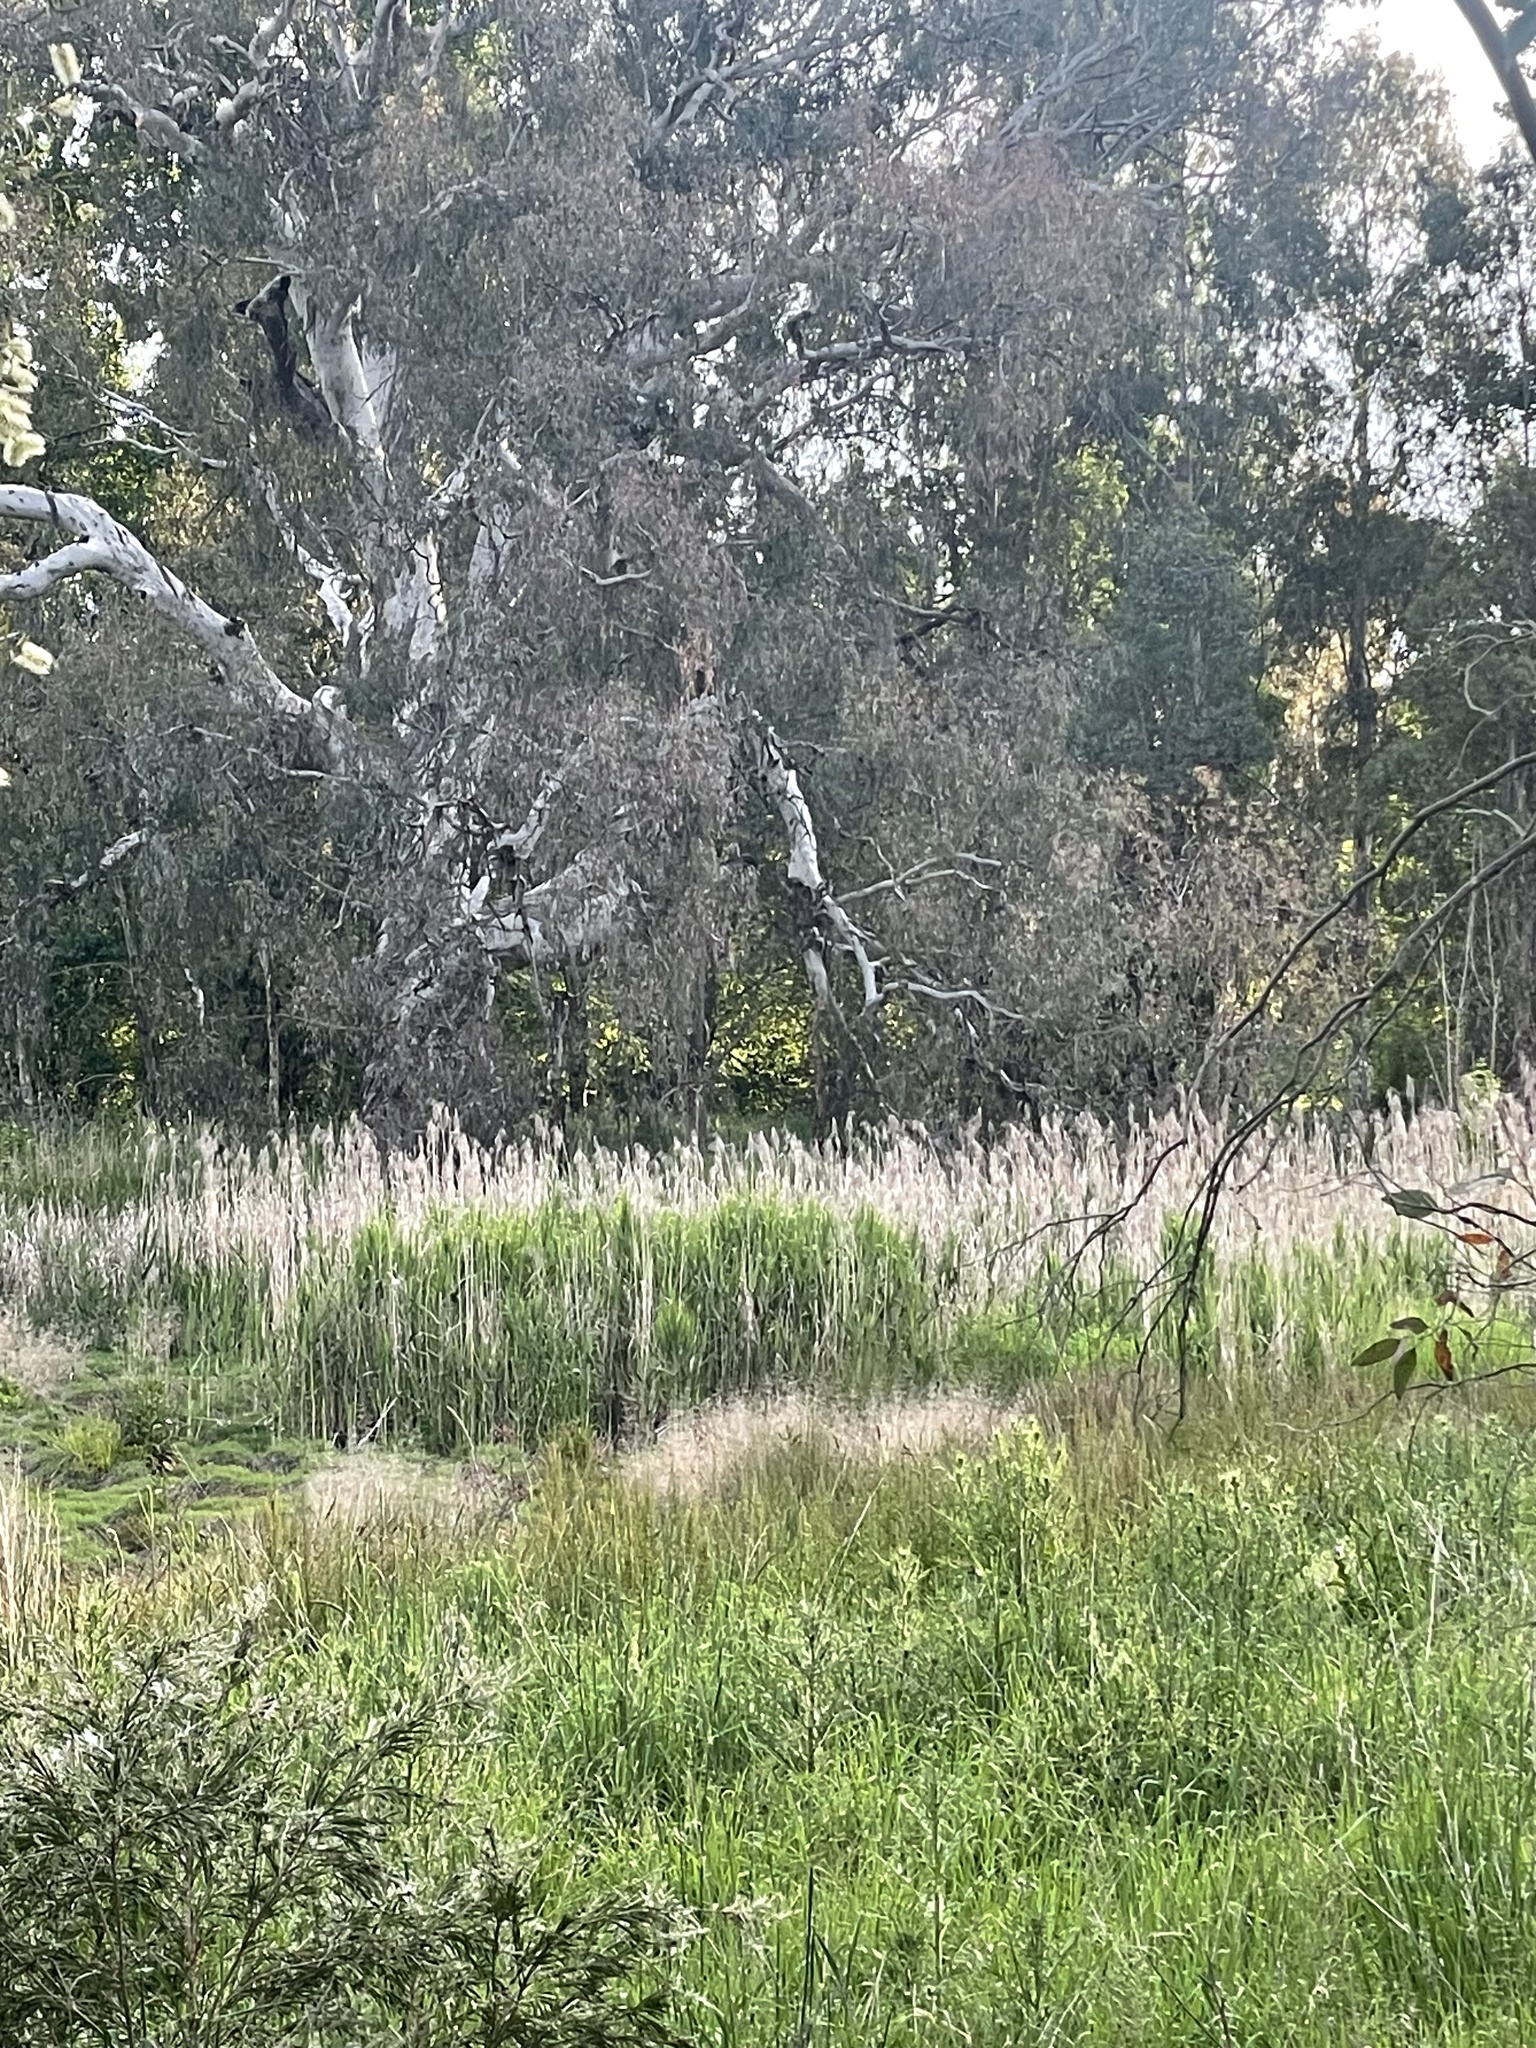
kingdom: Plantae
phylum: Tracheophyta
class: Liliopsida
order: Poales
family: Poaceae
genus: Phragmites
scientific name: Phragmites australis
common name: Common reed
